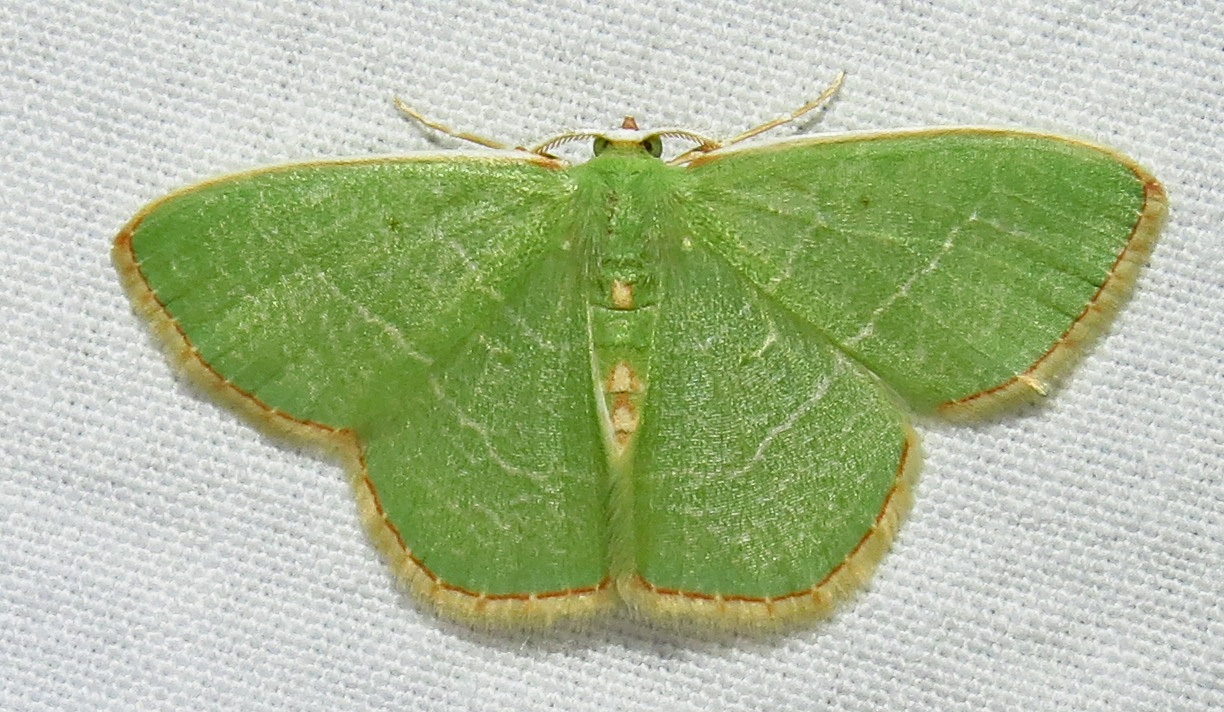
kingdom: Animalia
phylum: Arthropoda
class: Insecta
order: Lepidoptera
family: Geometridae
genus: Nemoria
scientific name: Nemoria bistriaria
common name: Red-fringed emerald
